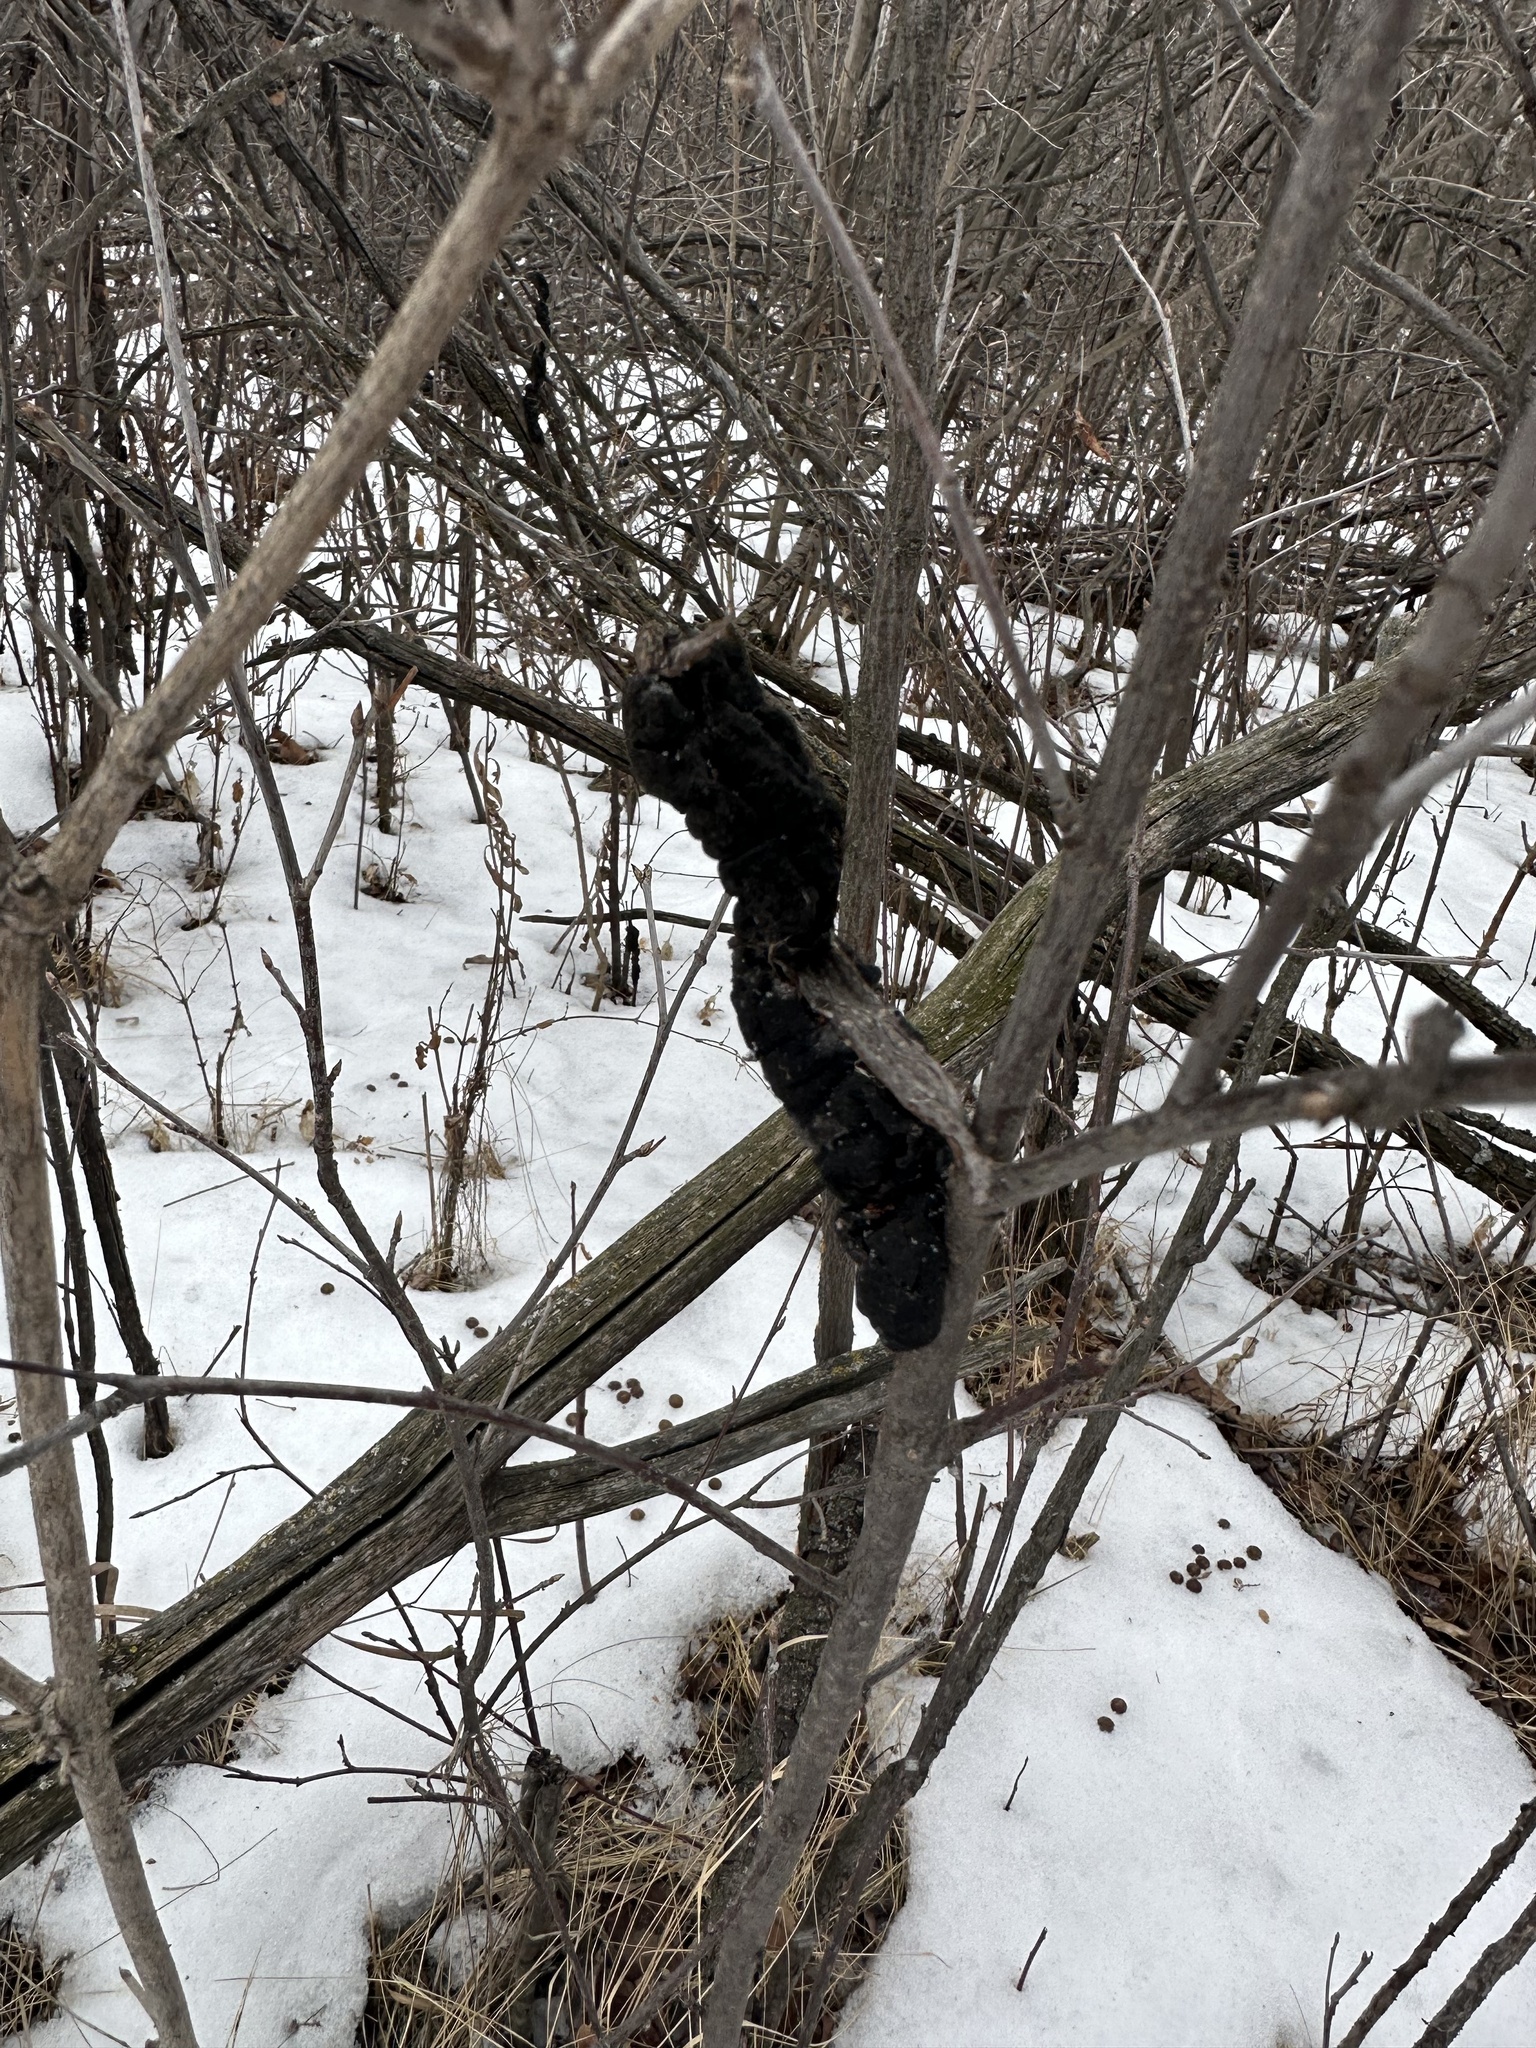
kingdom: Fungi
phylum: Ascomycota
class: Dothideomycetes
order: Venturiales
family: Venturiaceae
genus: Apiosporina
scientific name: Apiosporina morbosa
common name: Black knot
